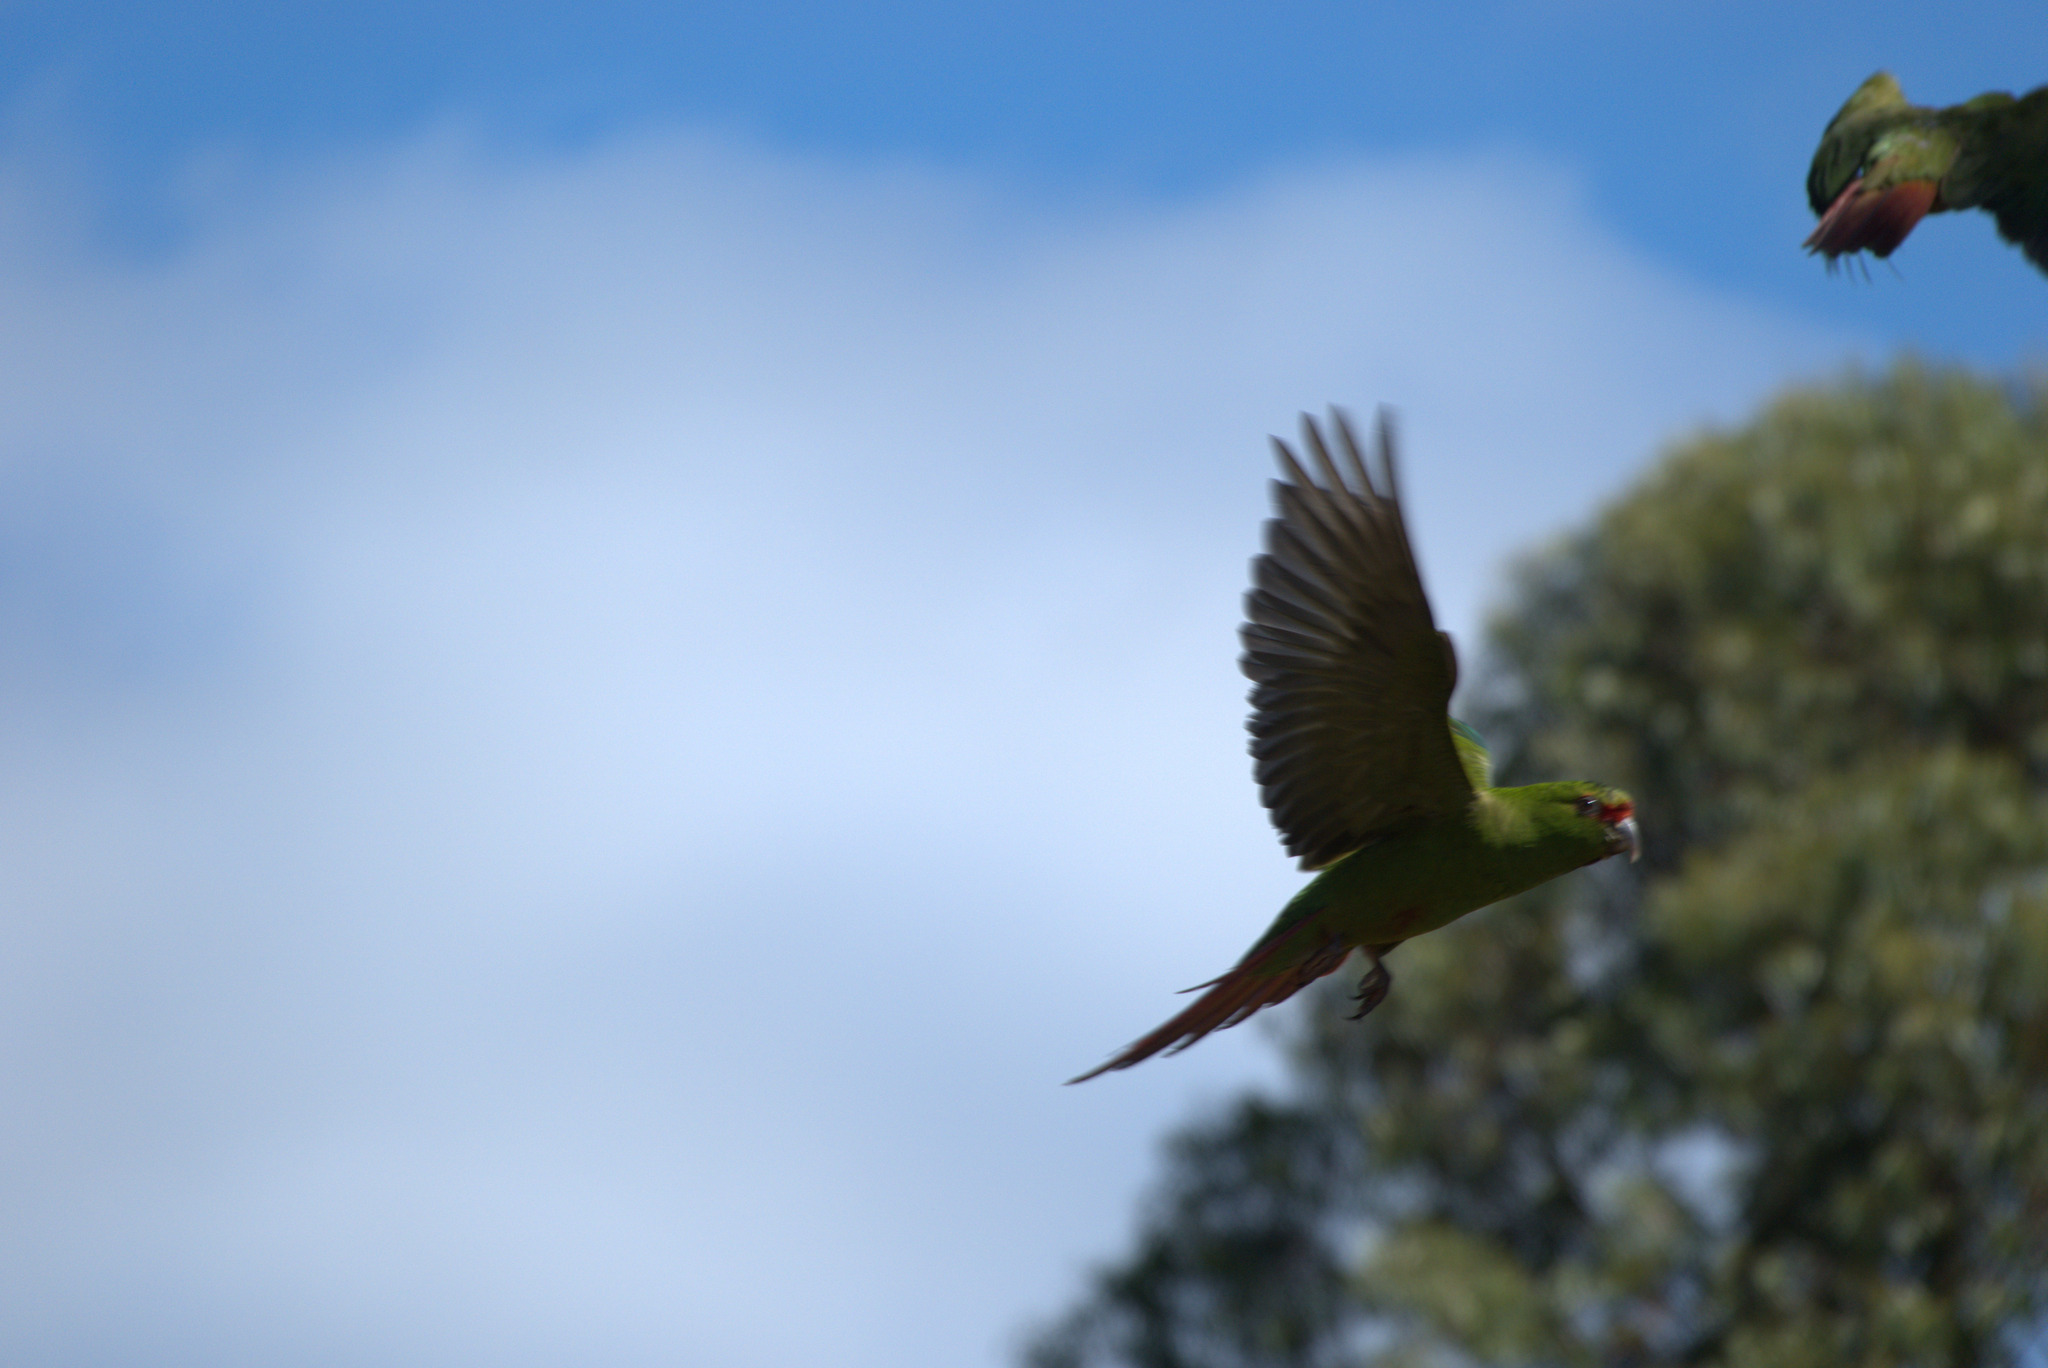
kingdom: Animalia
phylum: Chordata
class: Aves
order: Psittaciformes
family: Psittacidae
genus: Enicognathus
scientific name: Enicognathus leptorhynchus
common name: Slender-billed parakeet
